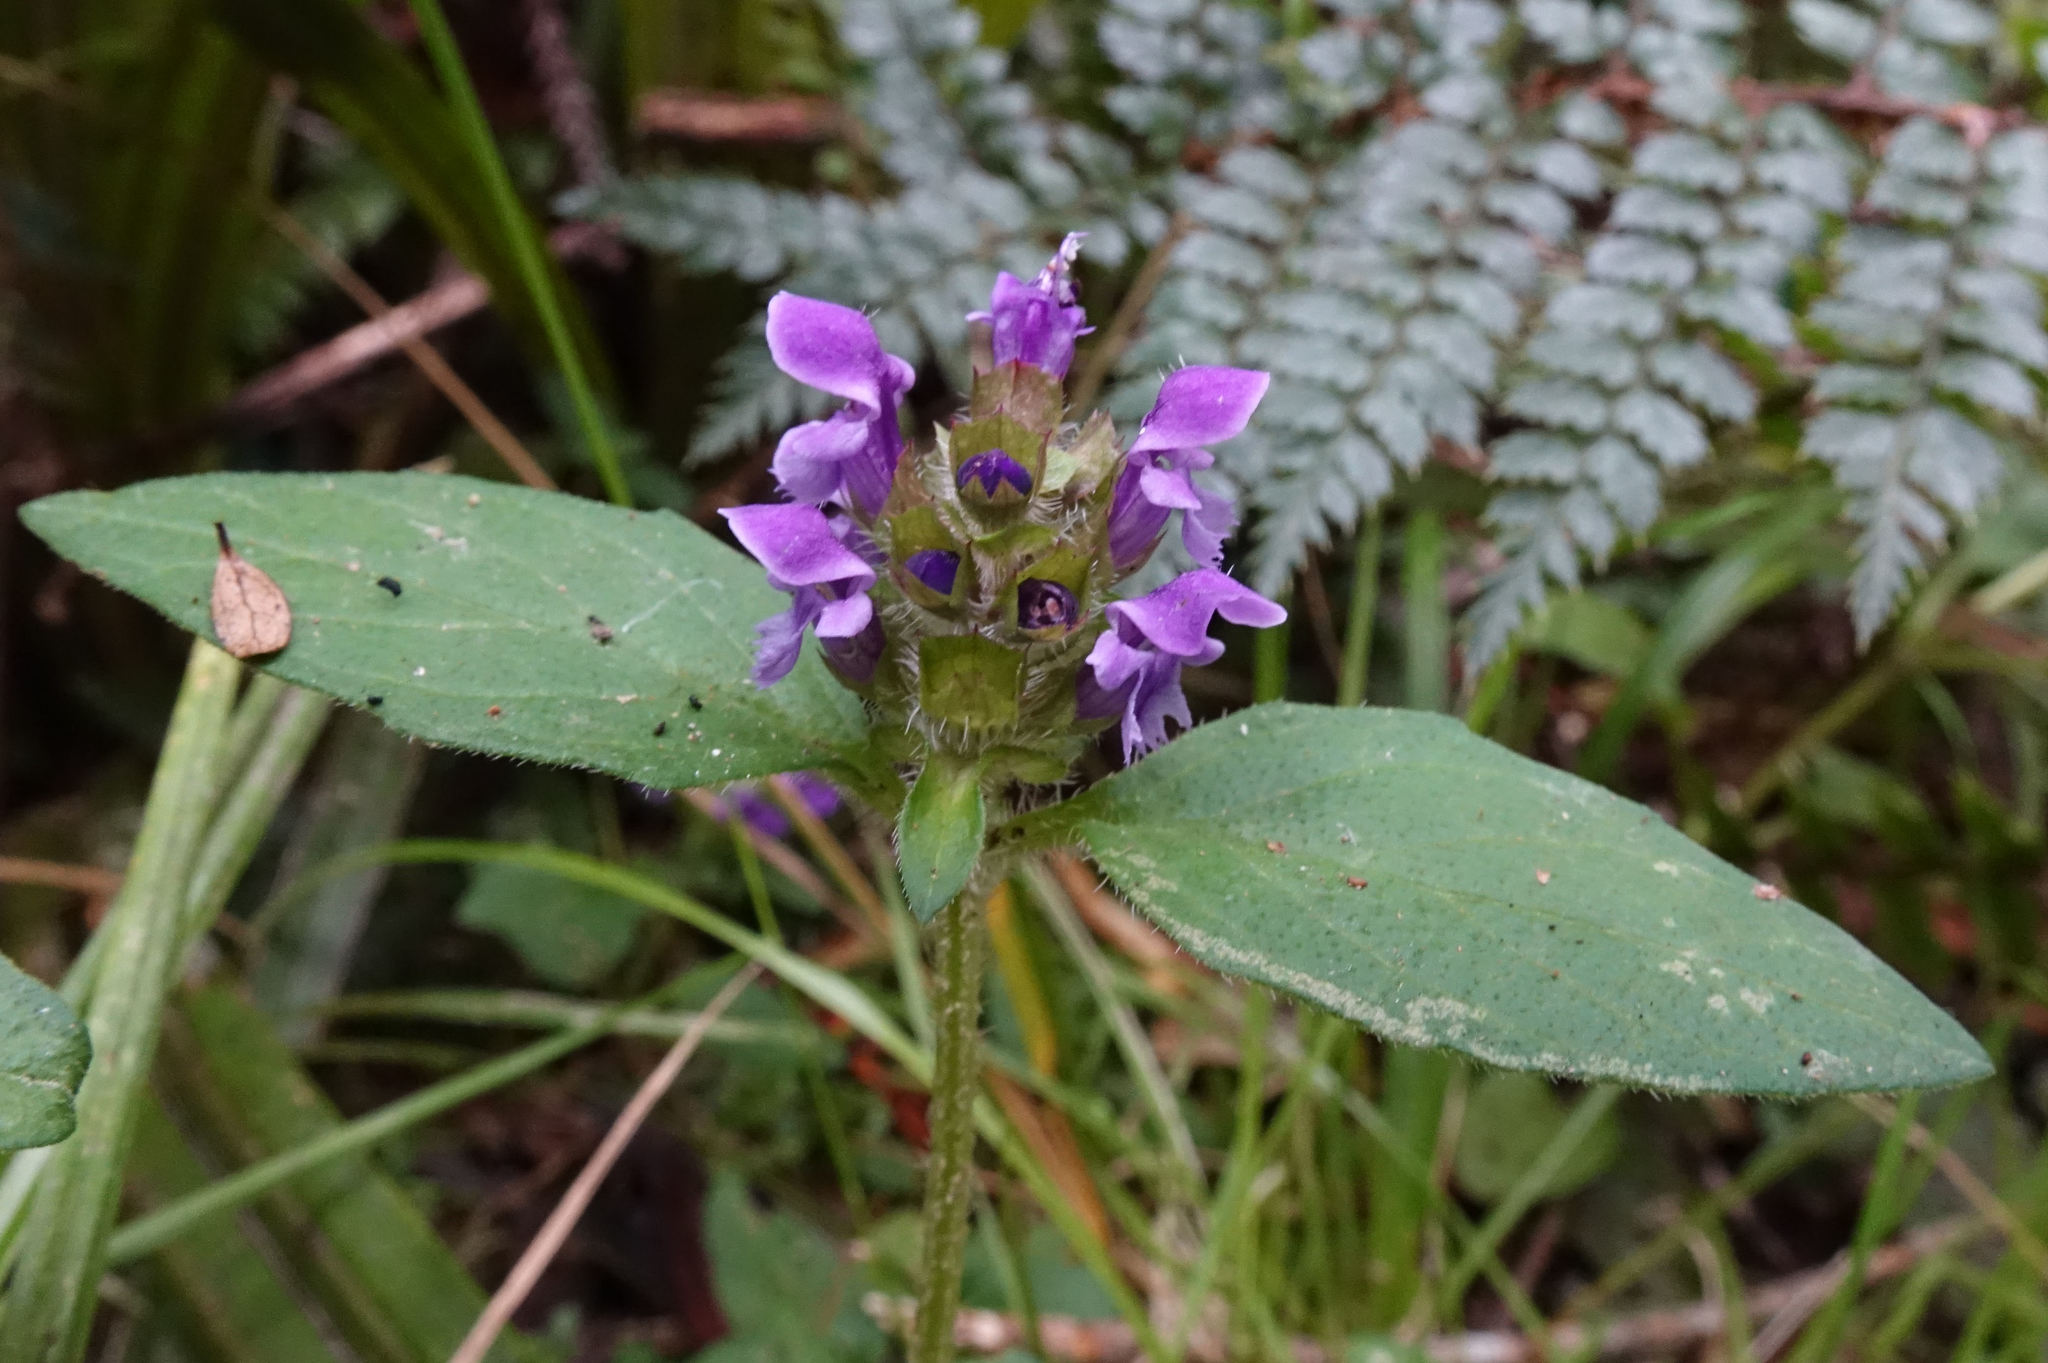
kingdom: Plantae
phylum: Tracheophyta
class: Magnoliopsida
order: Lamiales
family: Lamiaceae
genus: Prunella
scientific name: Prunella vulgaris
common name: Heal-all
